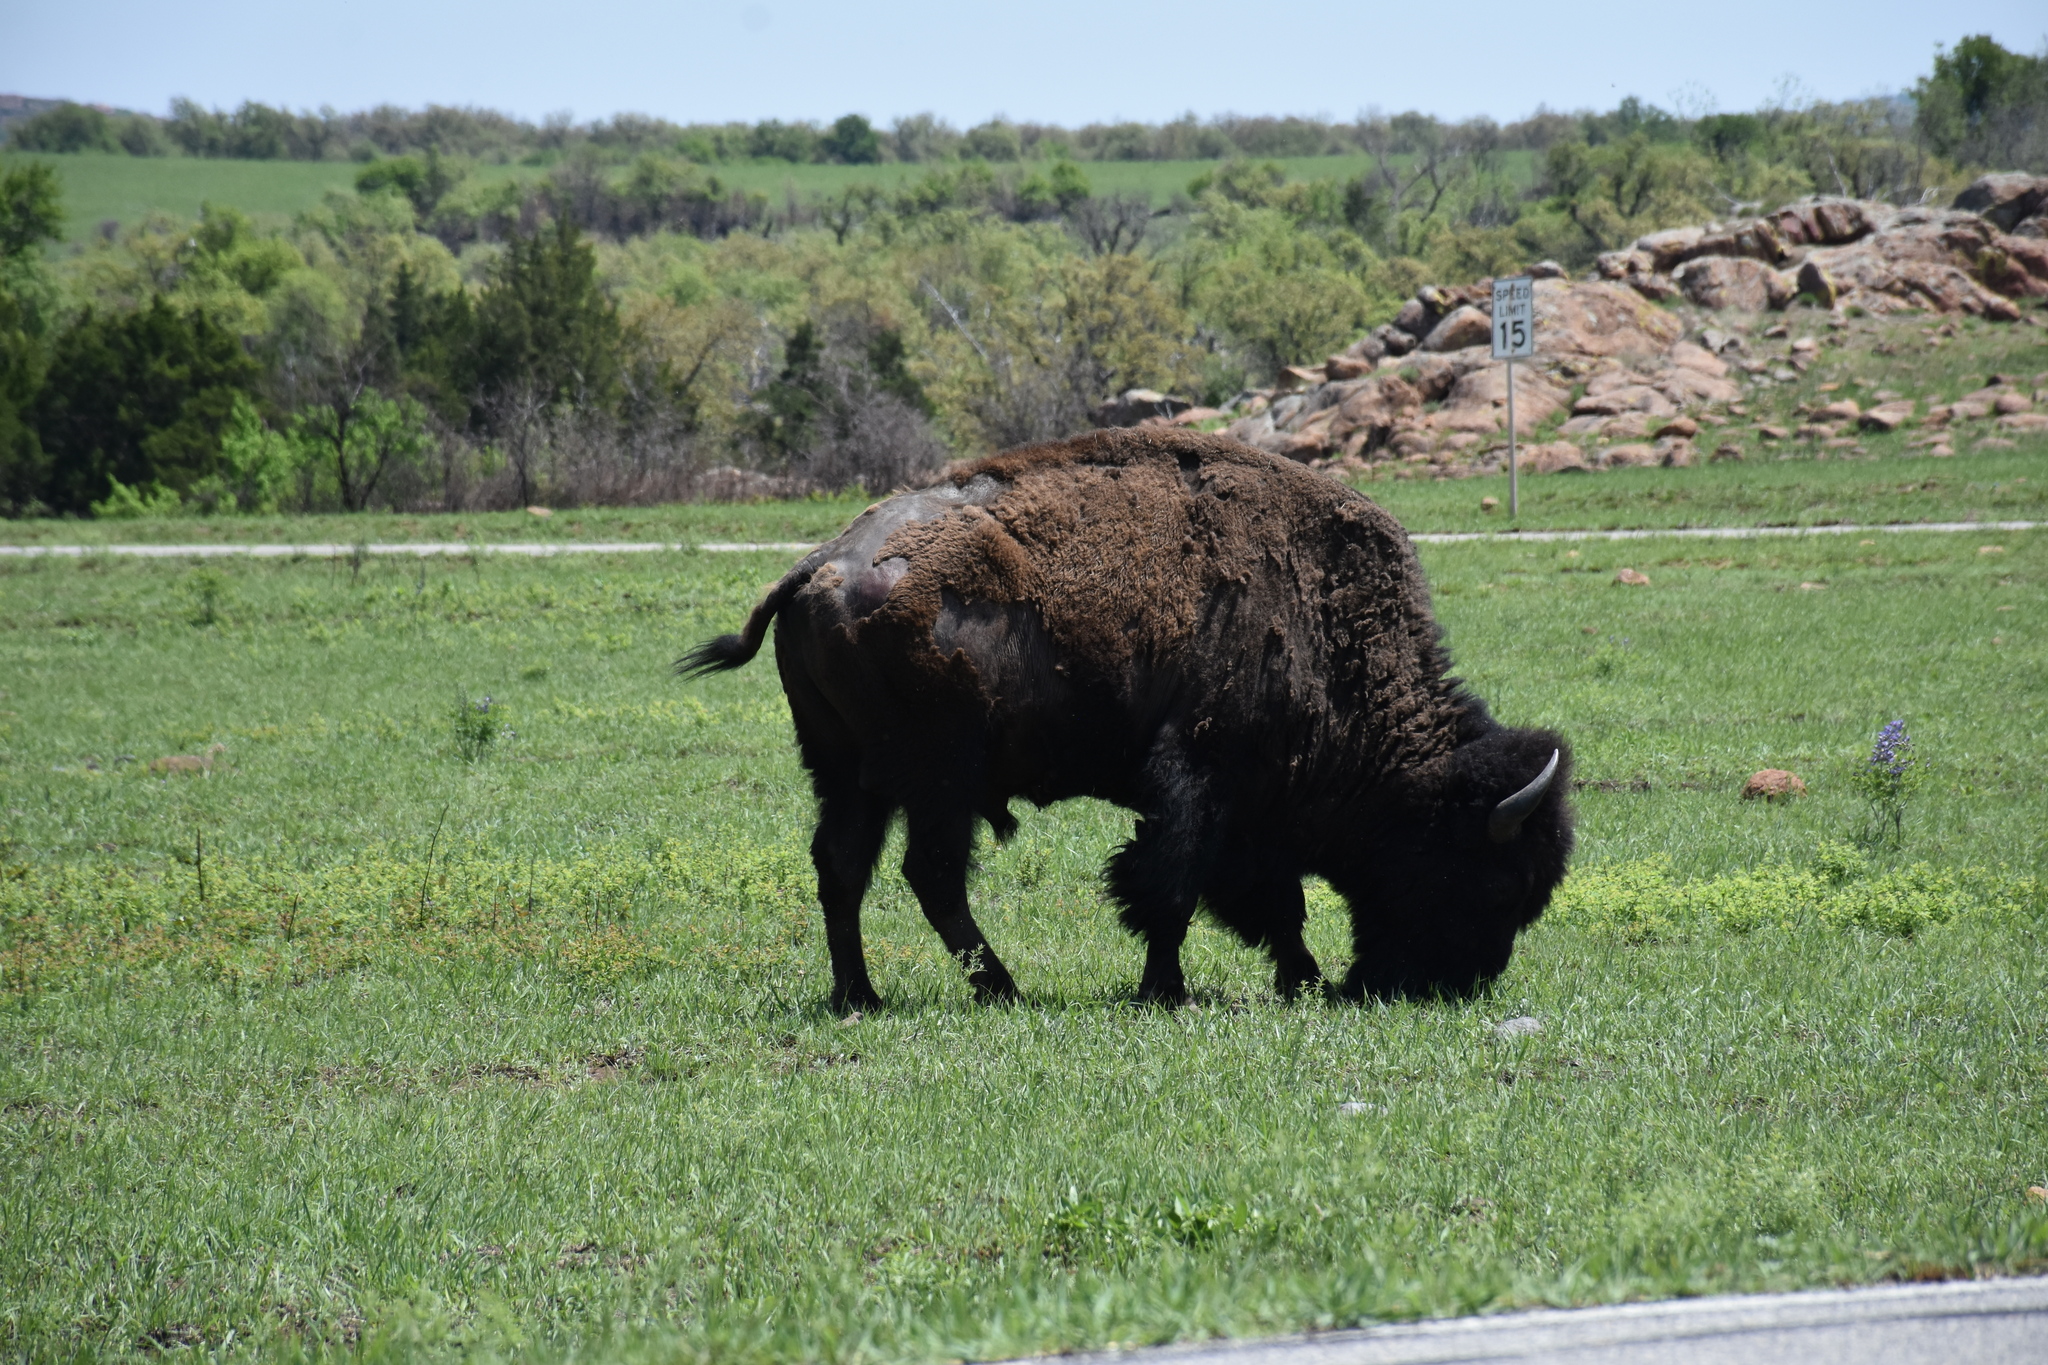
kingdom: Animalia
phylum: Chordata
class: Mammalia
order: Artiodactyla
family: Bovidae
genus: Bison
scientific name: Bison bison
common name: American bison
